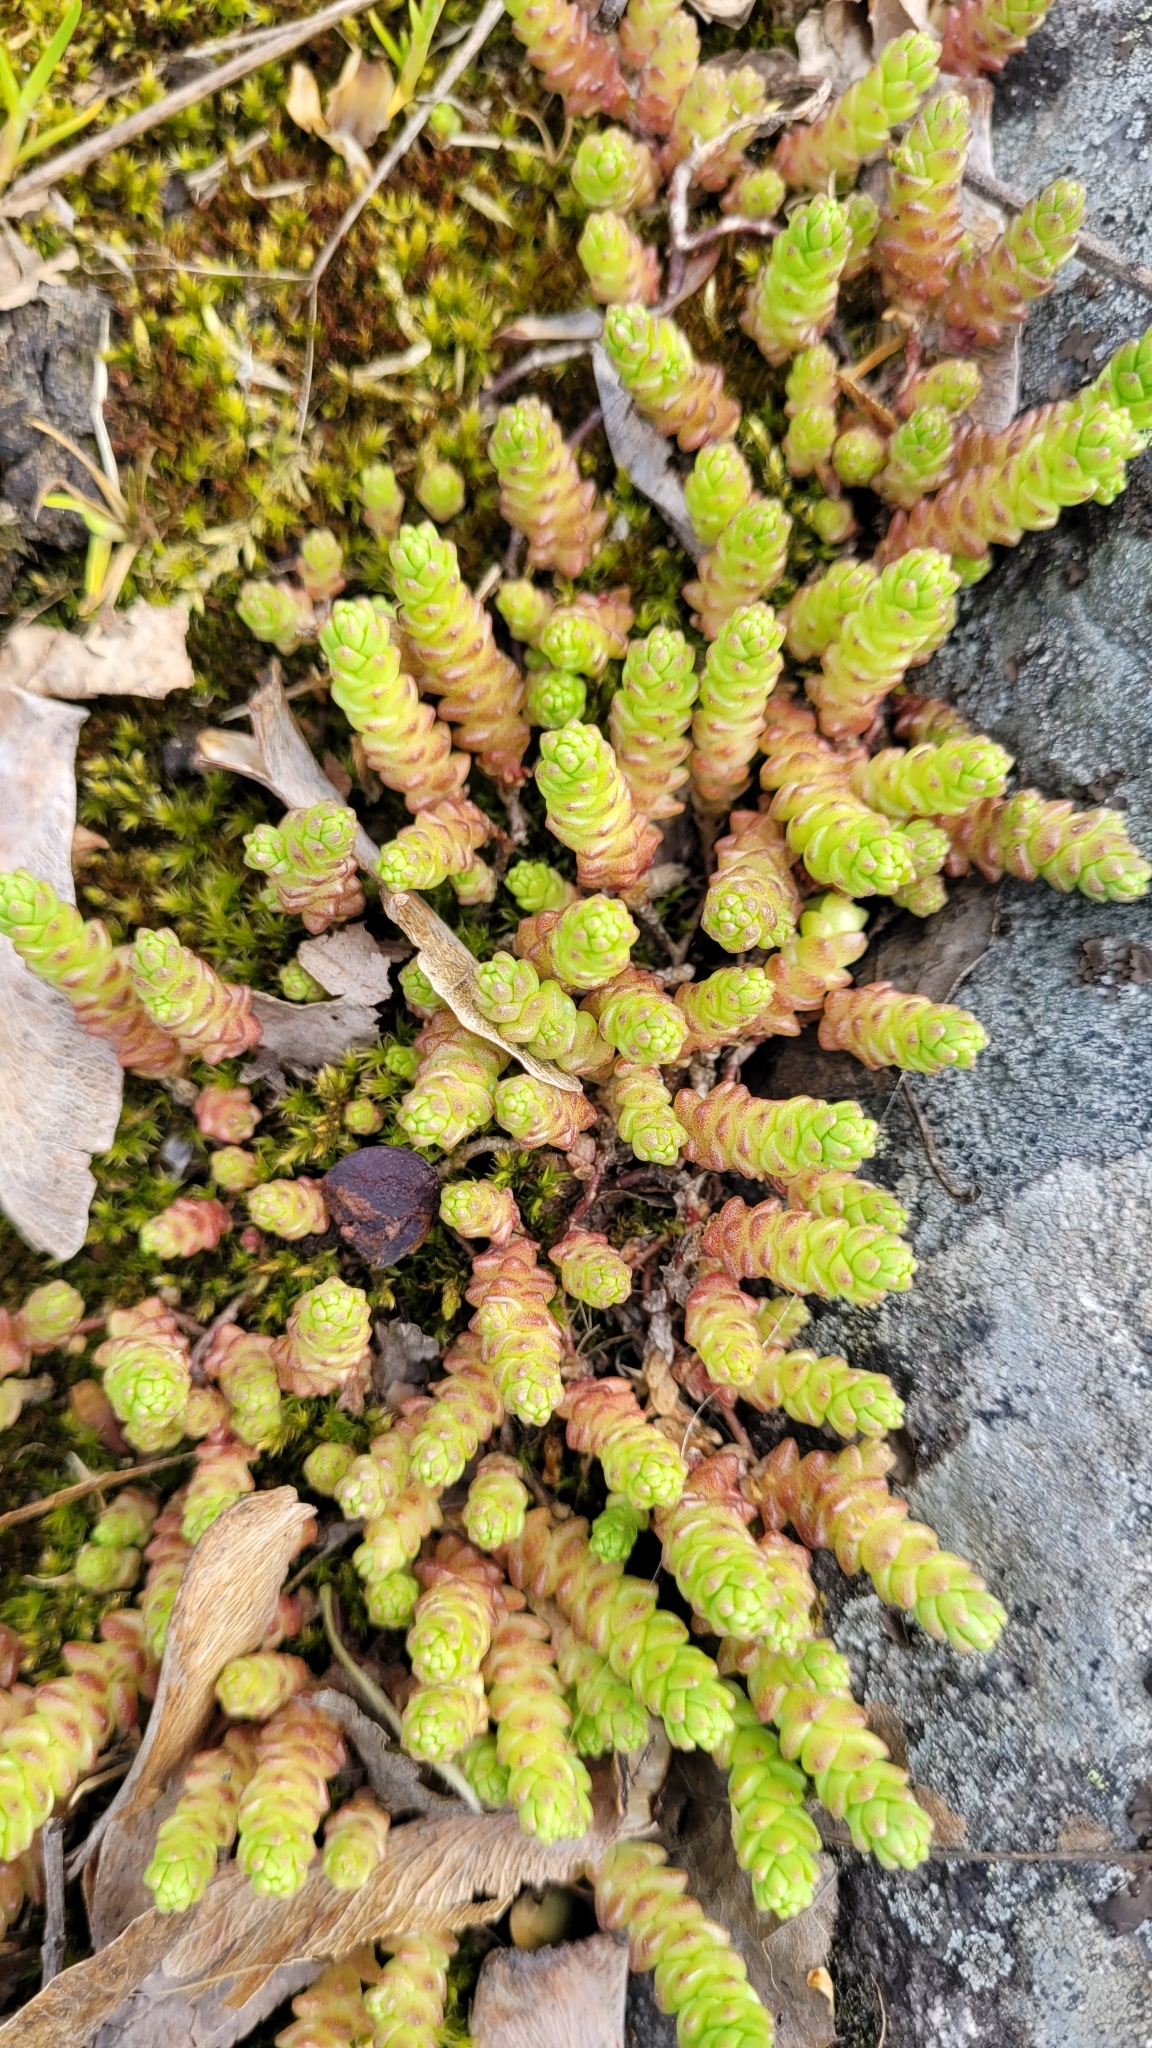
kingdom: Plantae
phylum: Tracheophyta
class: Magnoliopsida
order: Saxifragales
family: Crassulaceae
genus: Sedum
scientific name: Sedum acre
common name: Biting stonecrop
